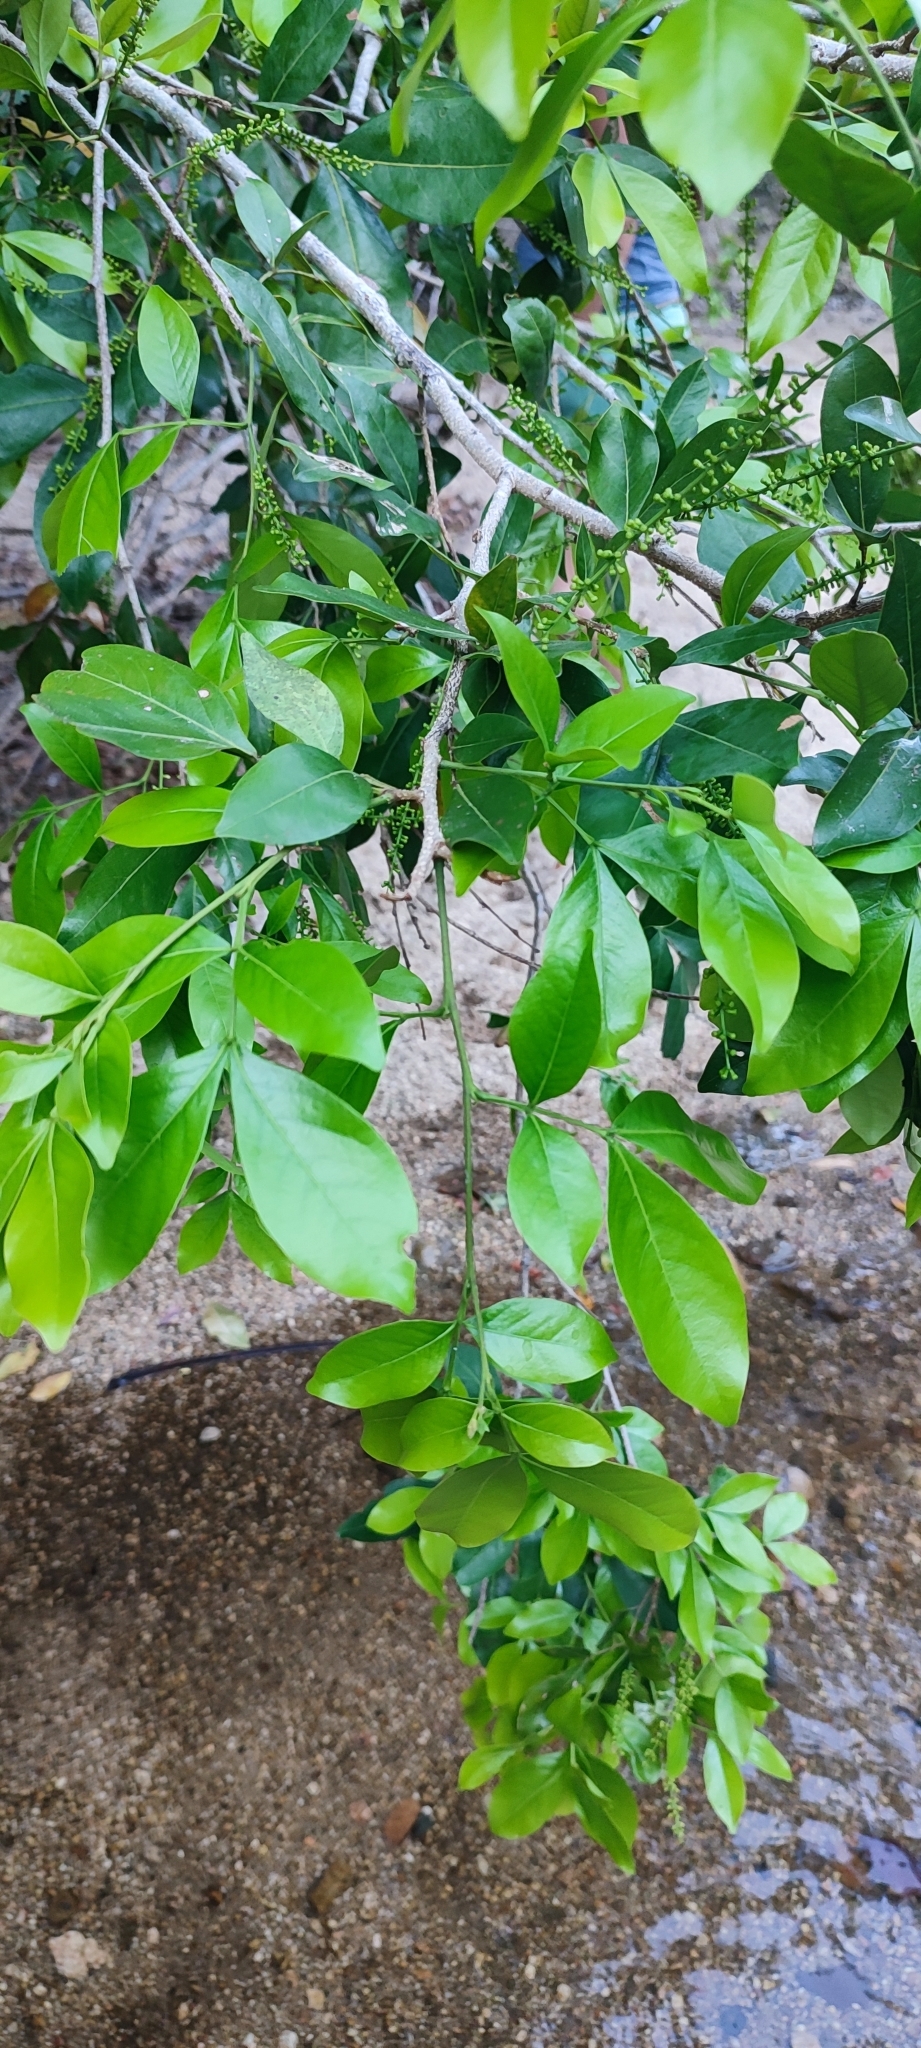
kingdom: Plantae
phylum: Tracheophyta
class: Magnoliopsida
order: Fabales
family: Fabaceae
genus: Inga
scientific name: Inga laurina
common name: Red wood
